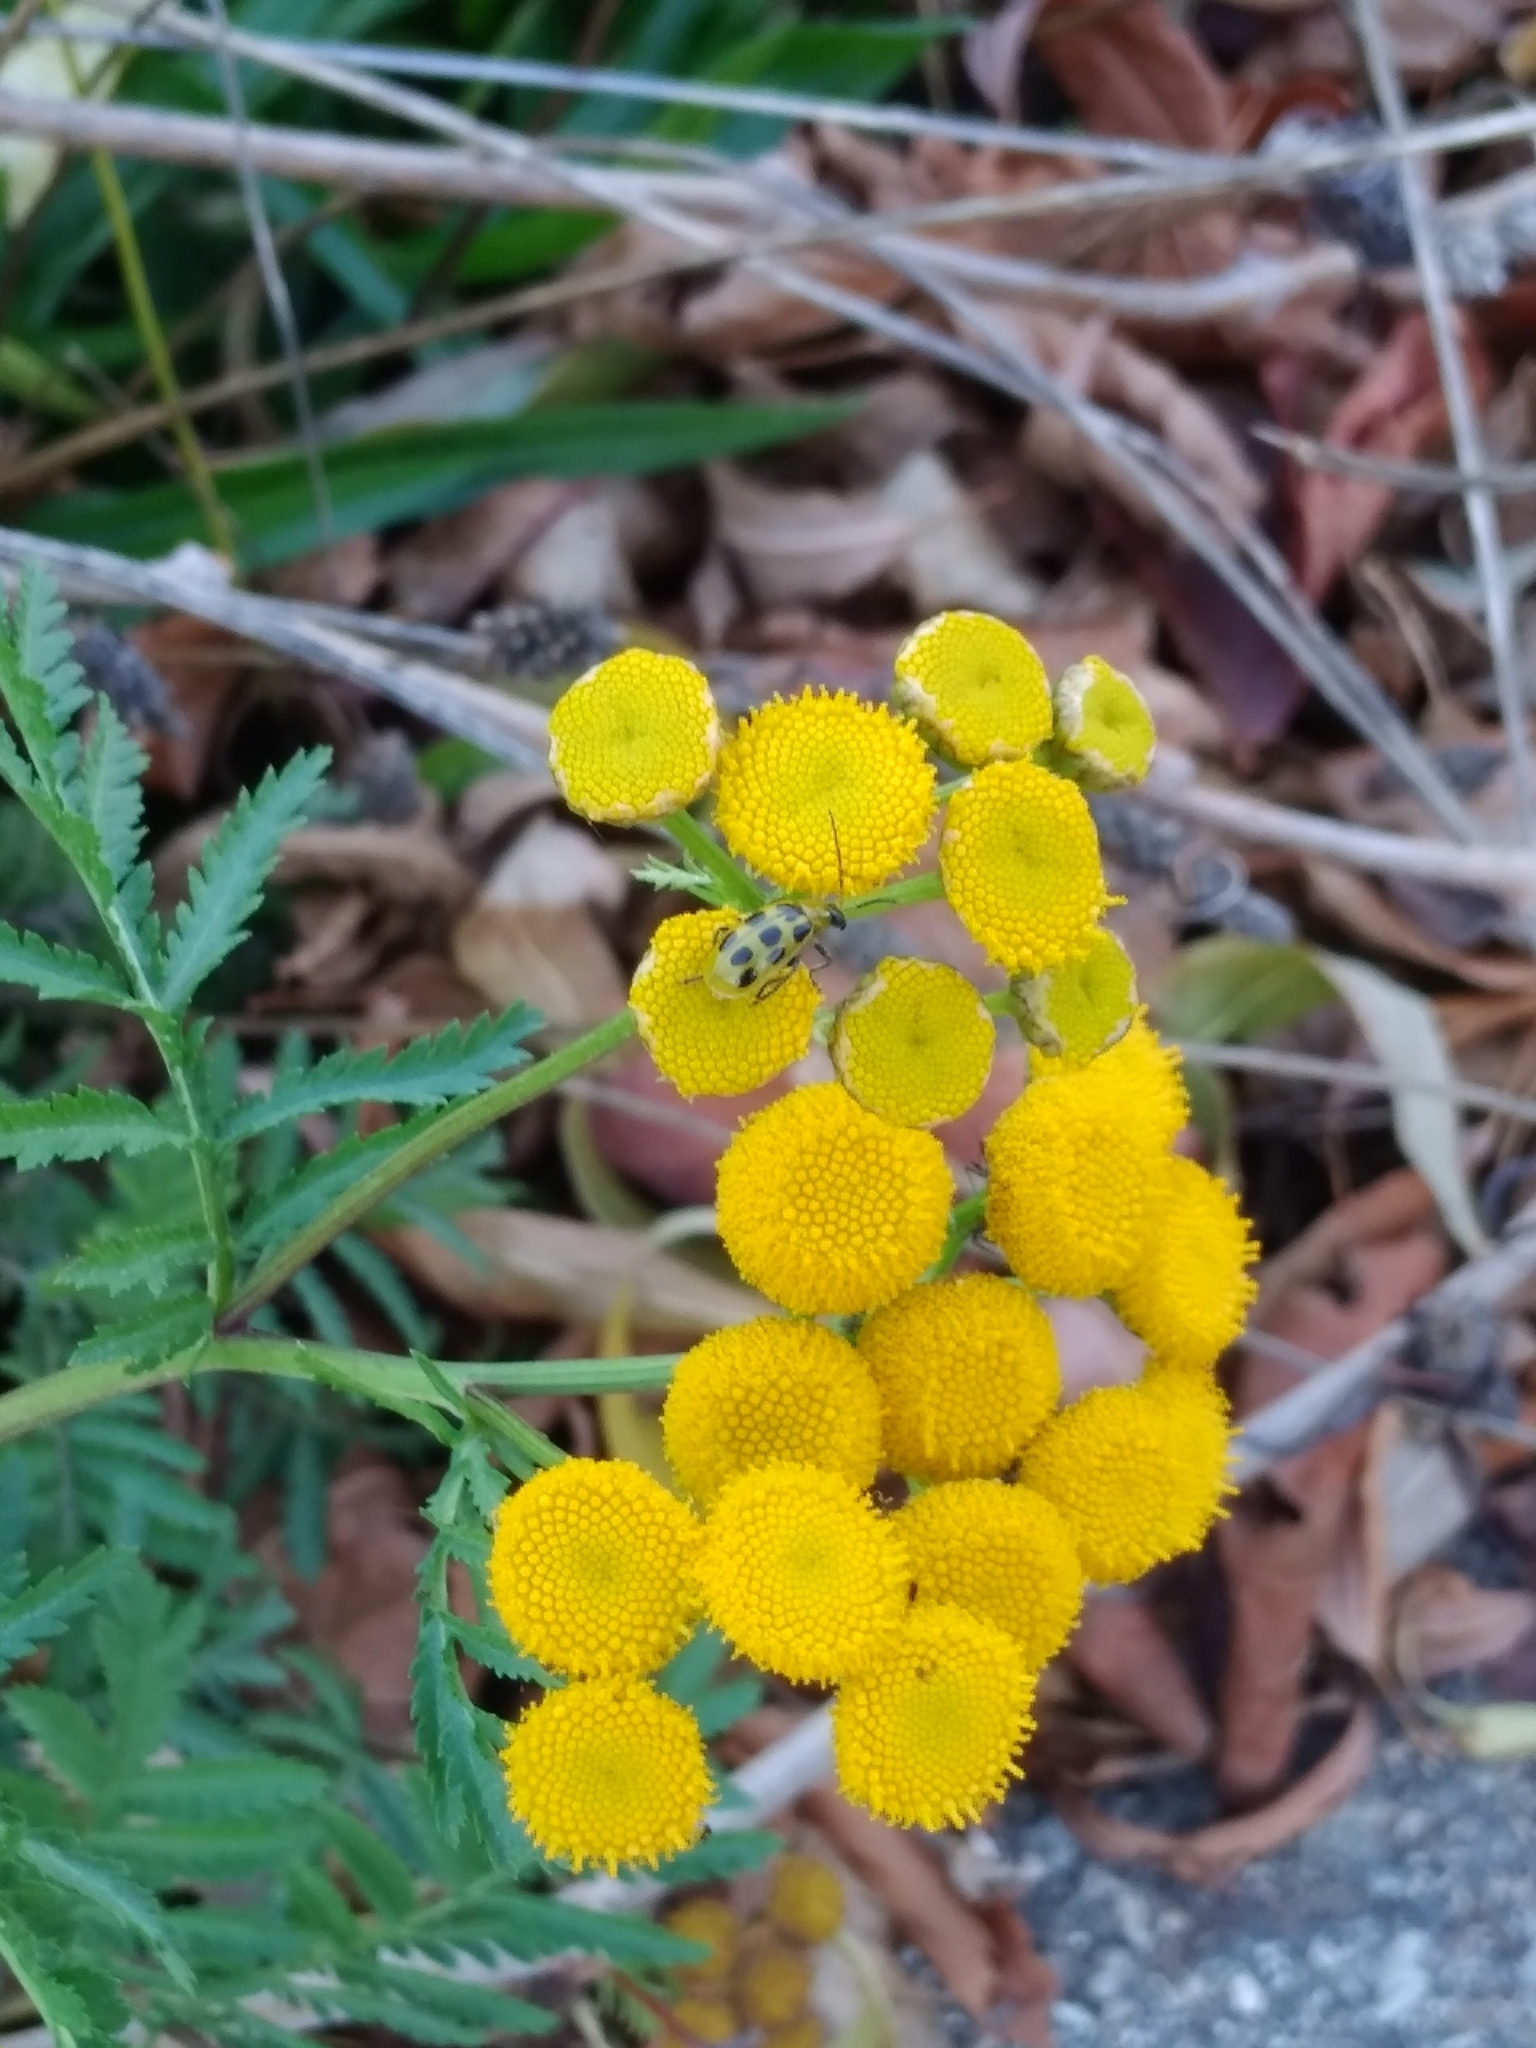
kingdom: Animalia
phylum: Arthropoda
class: Insecta
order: Coleoptera
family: Chrysomelidae
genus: Diabrotica
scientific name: Diabrotica undecimpunctata
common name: Spotted cucumber beetle
